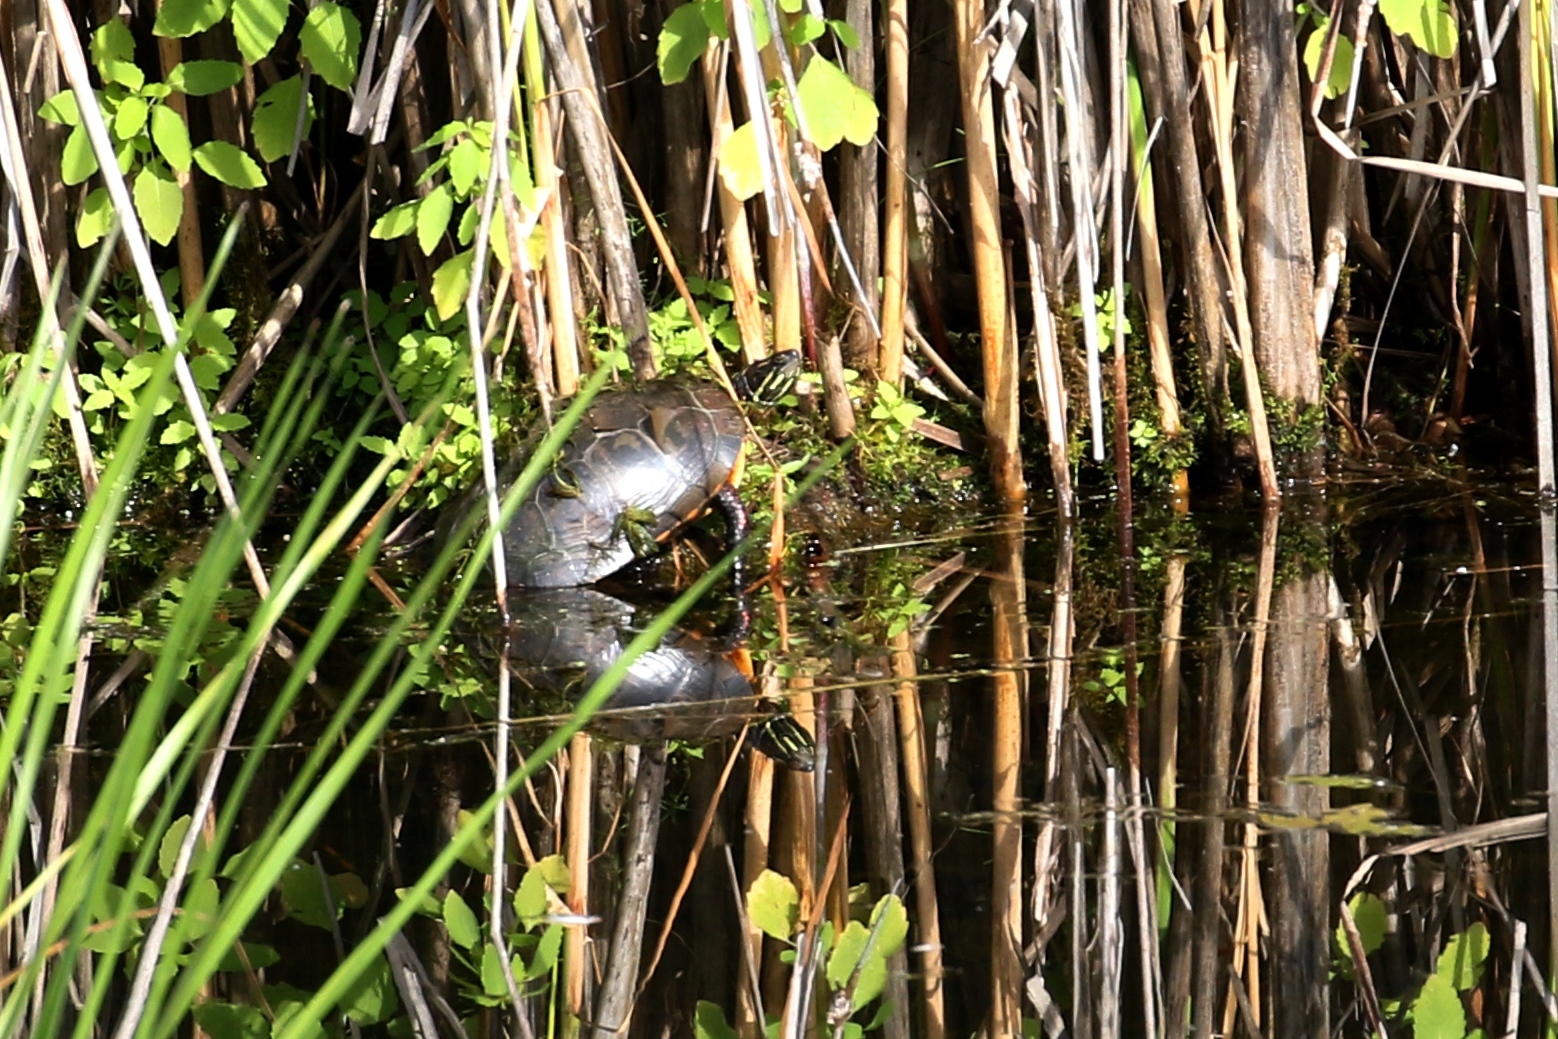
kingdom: Animalia
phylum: Chordata
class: Testudines
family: Emydidae
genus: Chrysemys
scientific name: Chrysemys picta
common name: Painted turtle
